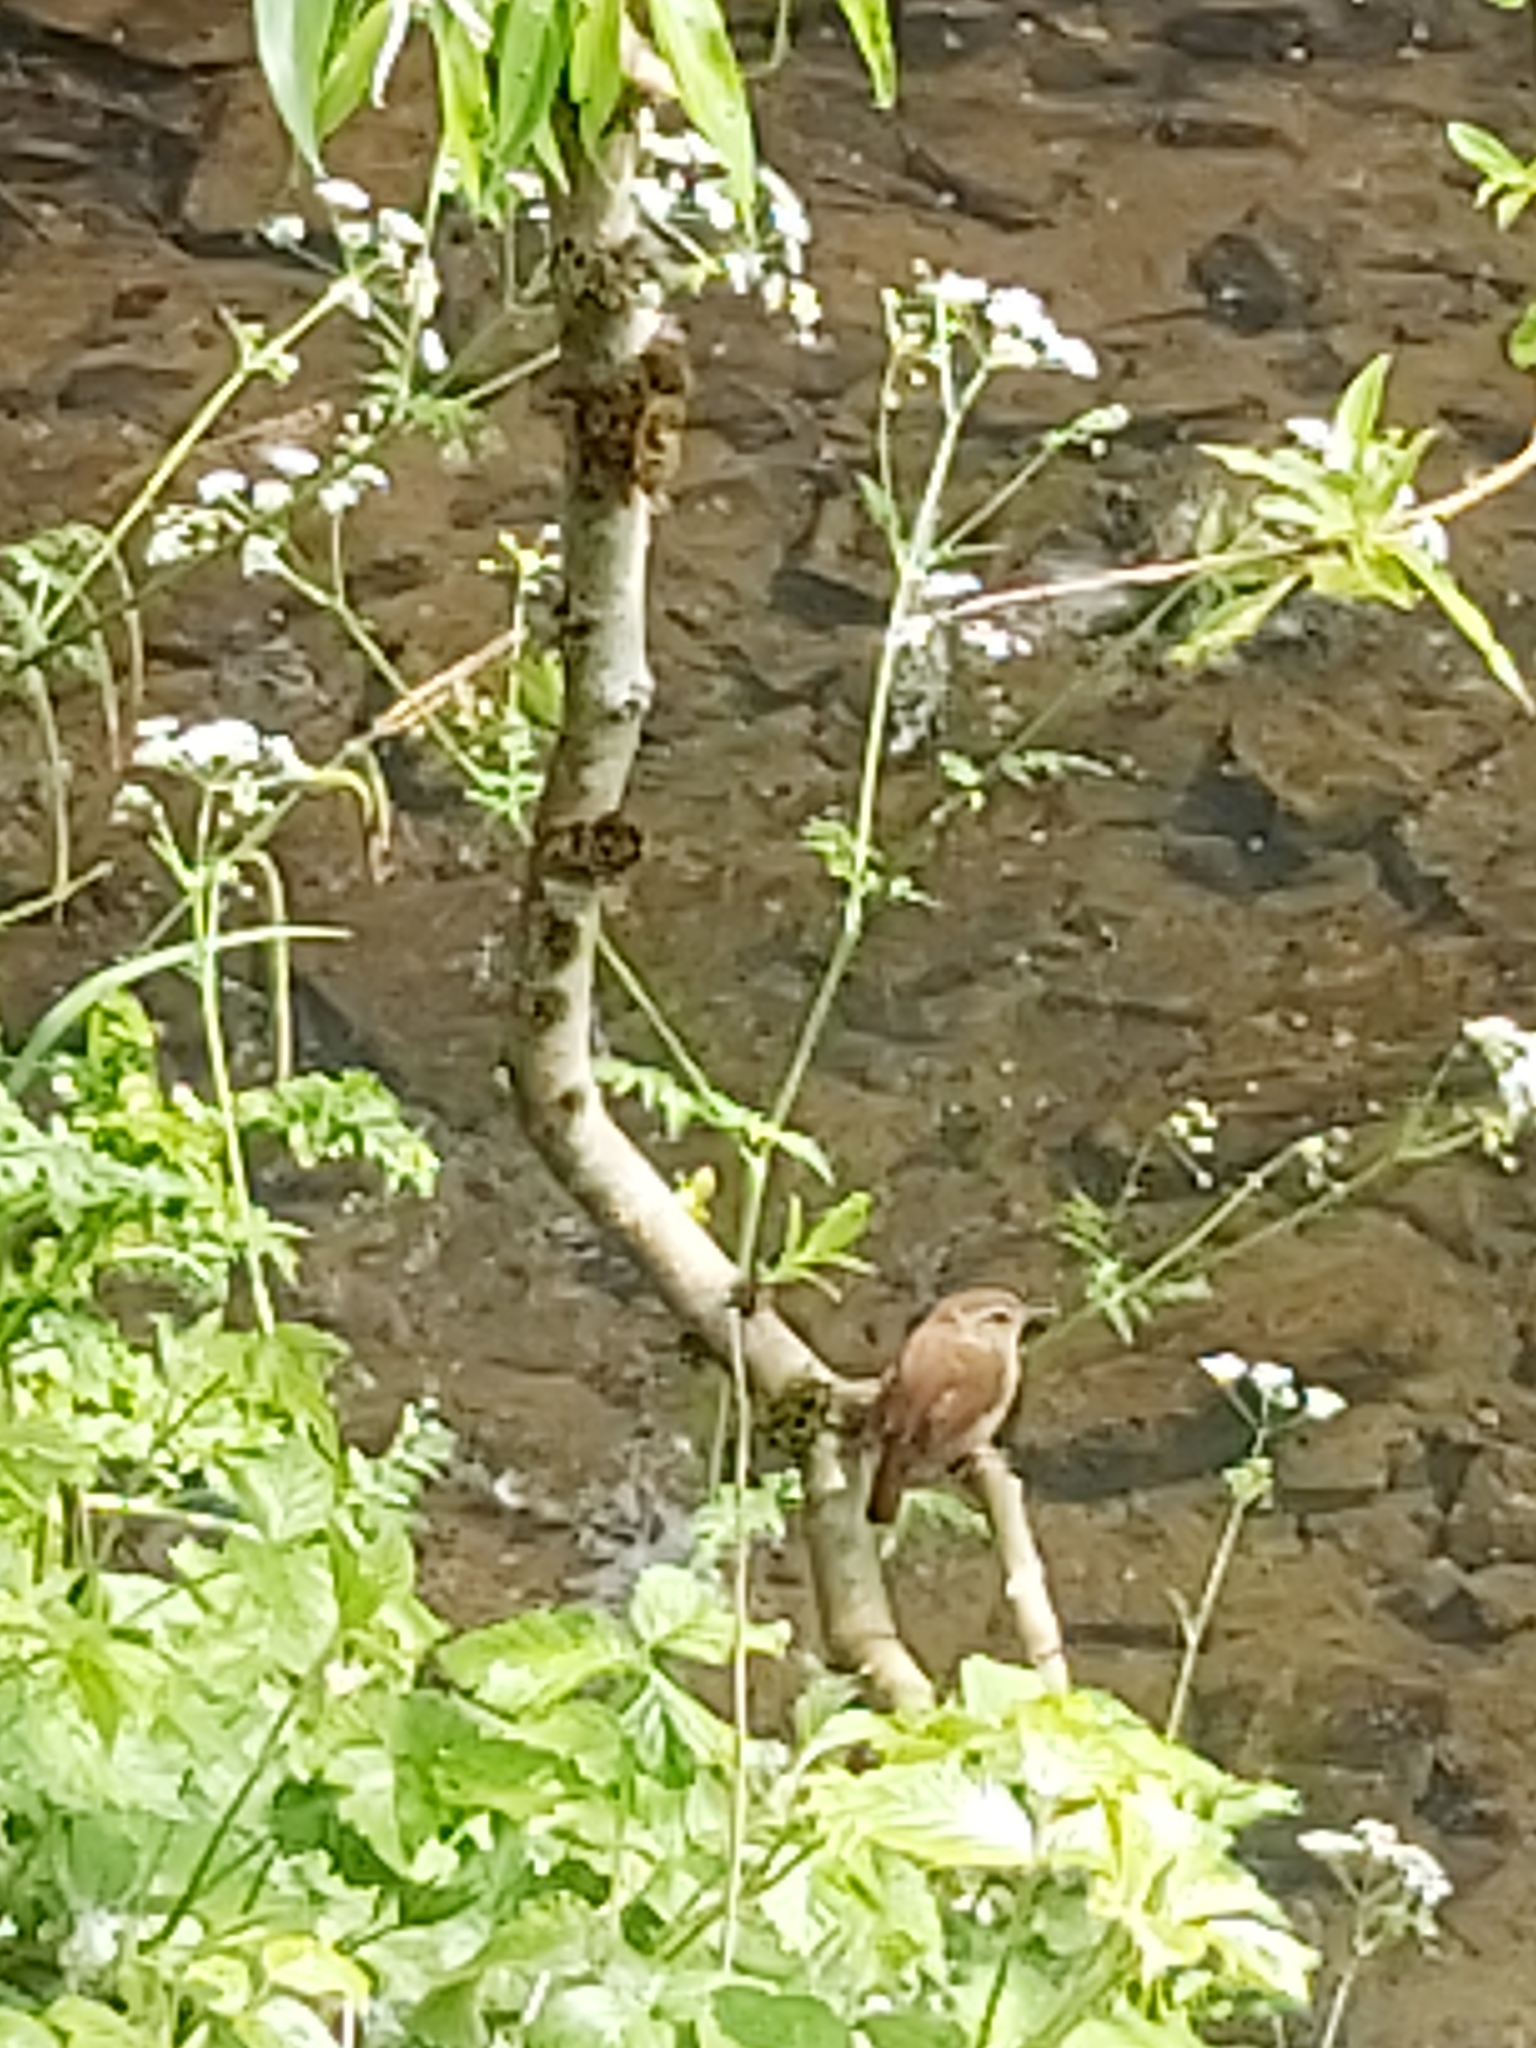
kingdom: Animalia
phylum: Chordata
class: Aves
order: Passeriformes
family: Troglodytidae
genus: Troglodytes
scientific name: Troglodytes troglodytes
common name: Eurasian wren
